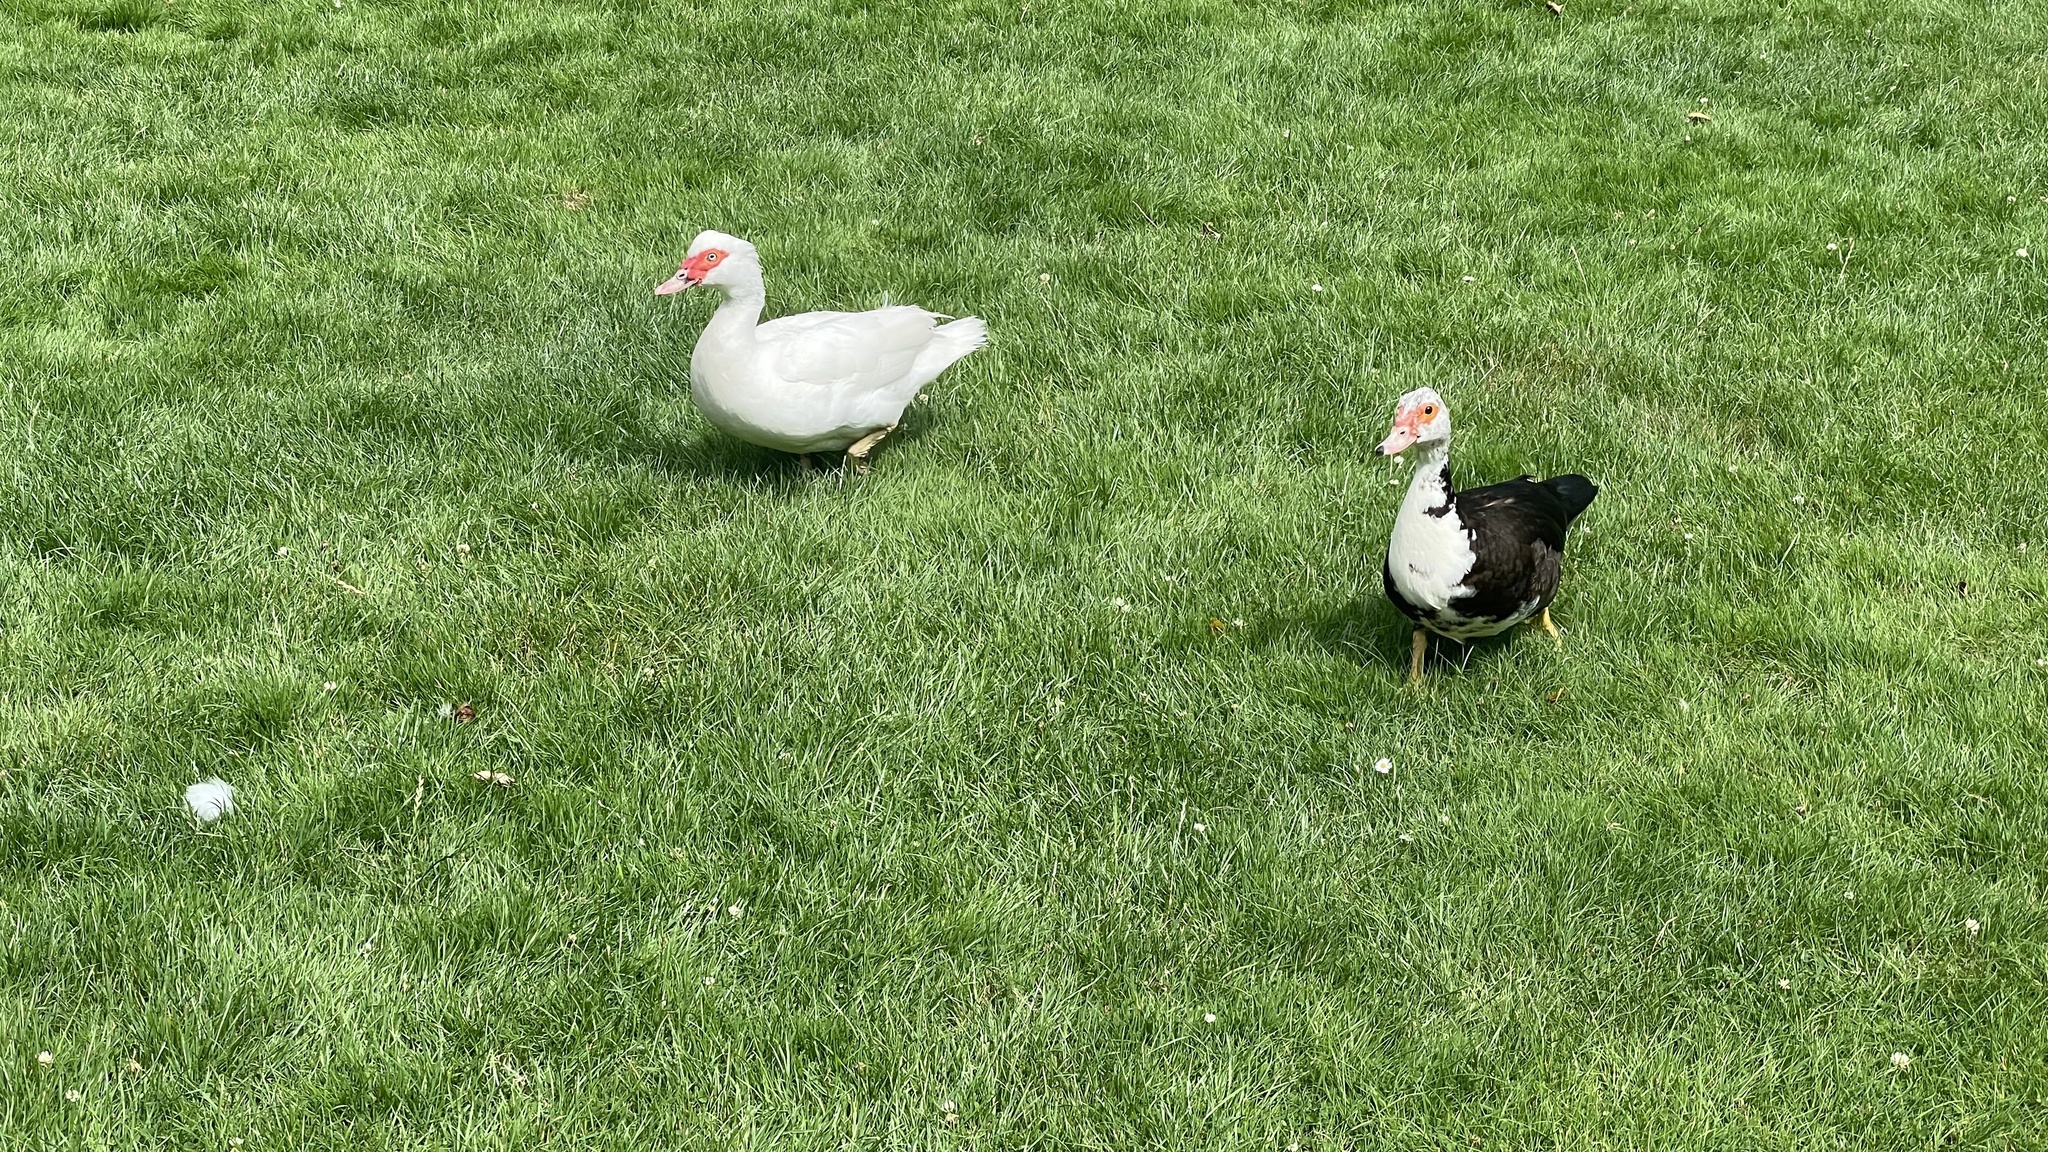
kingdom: Animalia
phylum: Chordata
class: Aves
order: Anseriformes
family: Anatidae
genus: Cairina
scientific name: Cairina moschata
